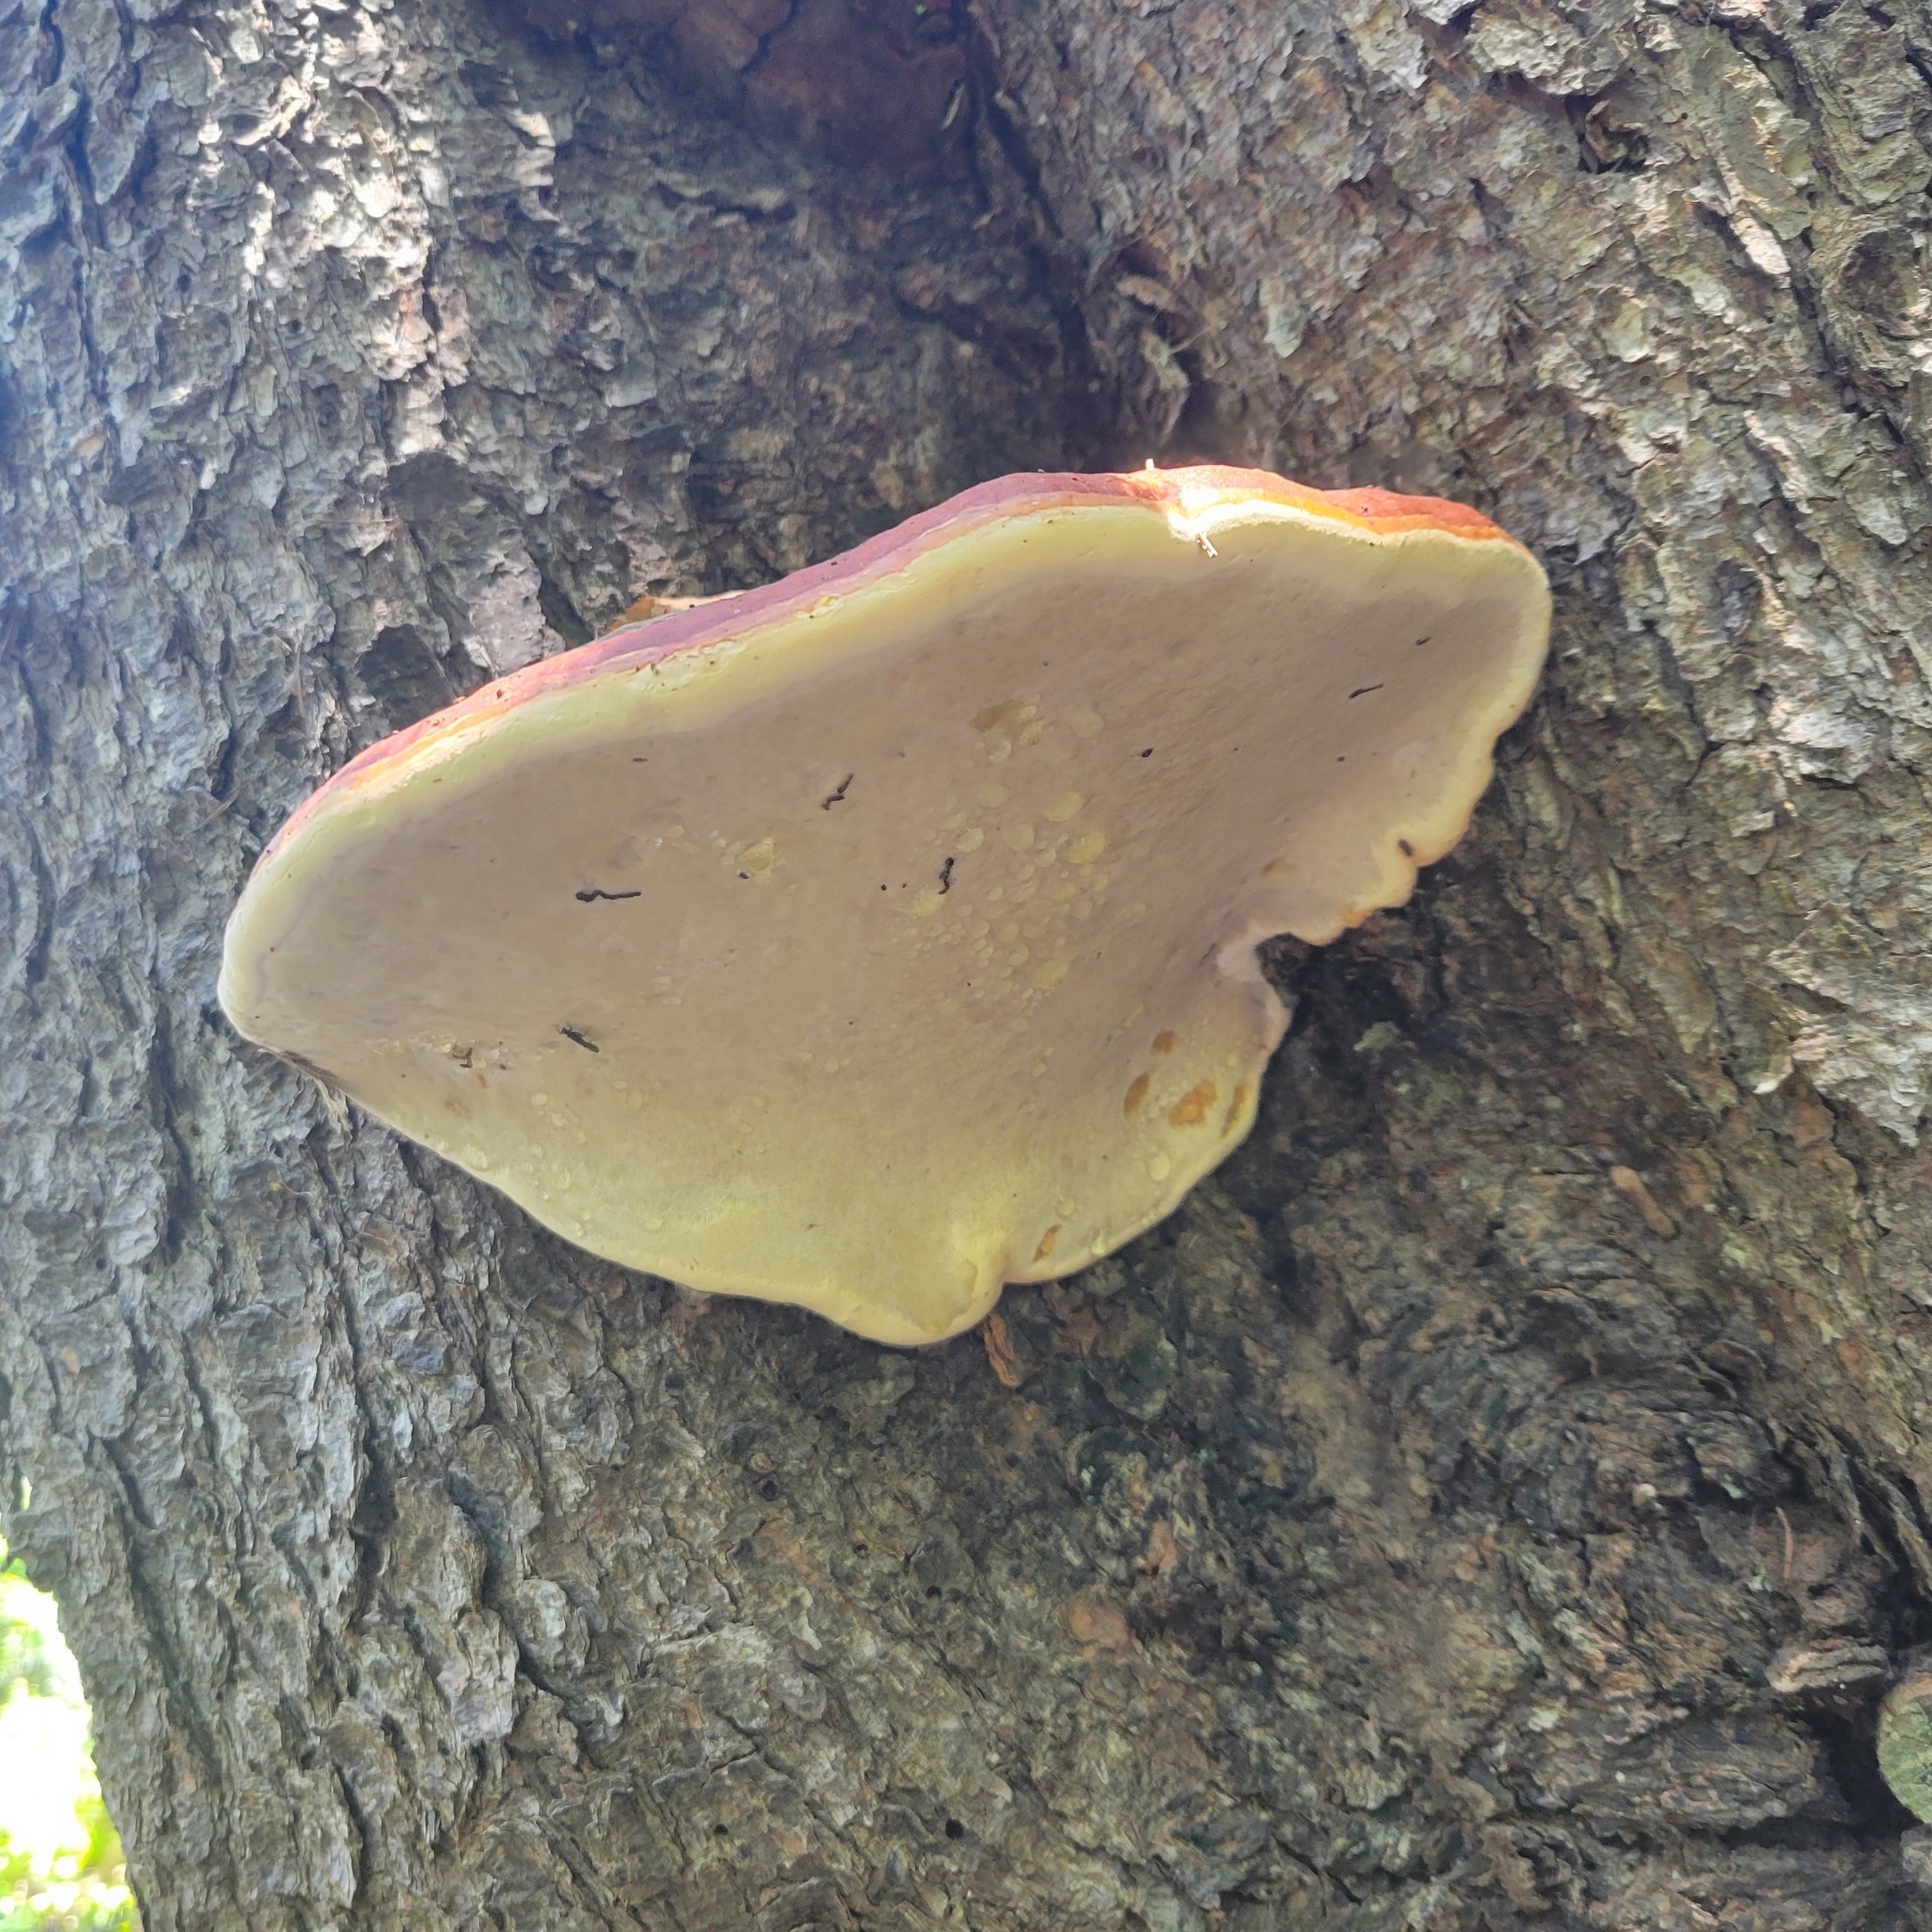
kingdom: Fungi
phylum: Basidiomycota
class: Agaricomycetes
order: Polyporales
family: Fomitopsidaceae
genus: Fomitopsis
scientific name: Fomitopsis mounceae
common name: Northern red belt
